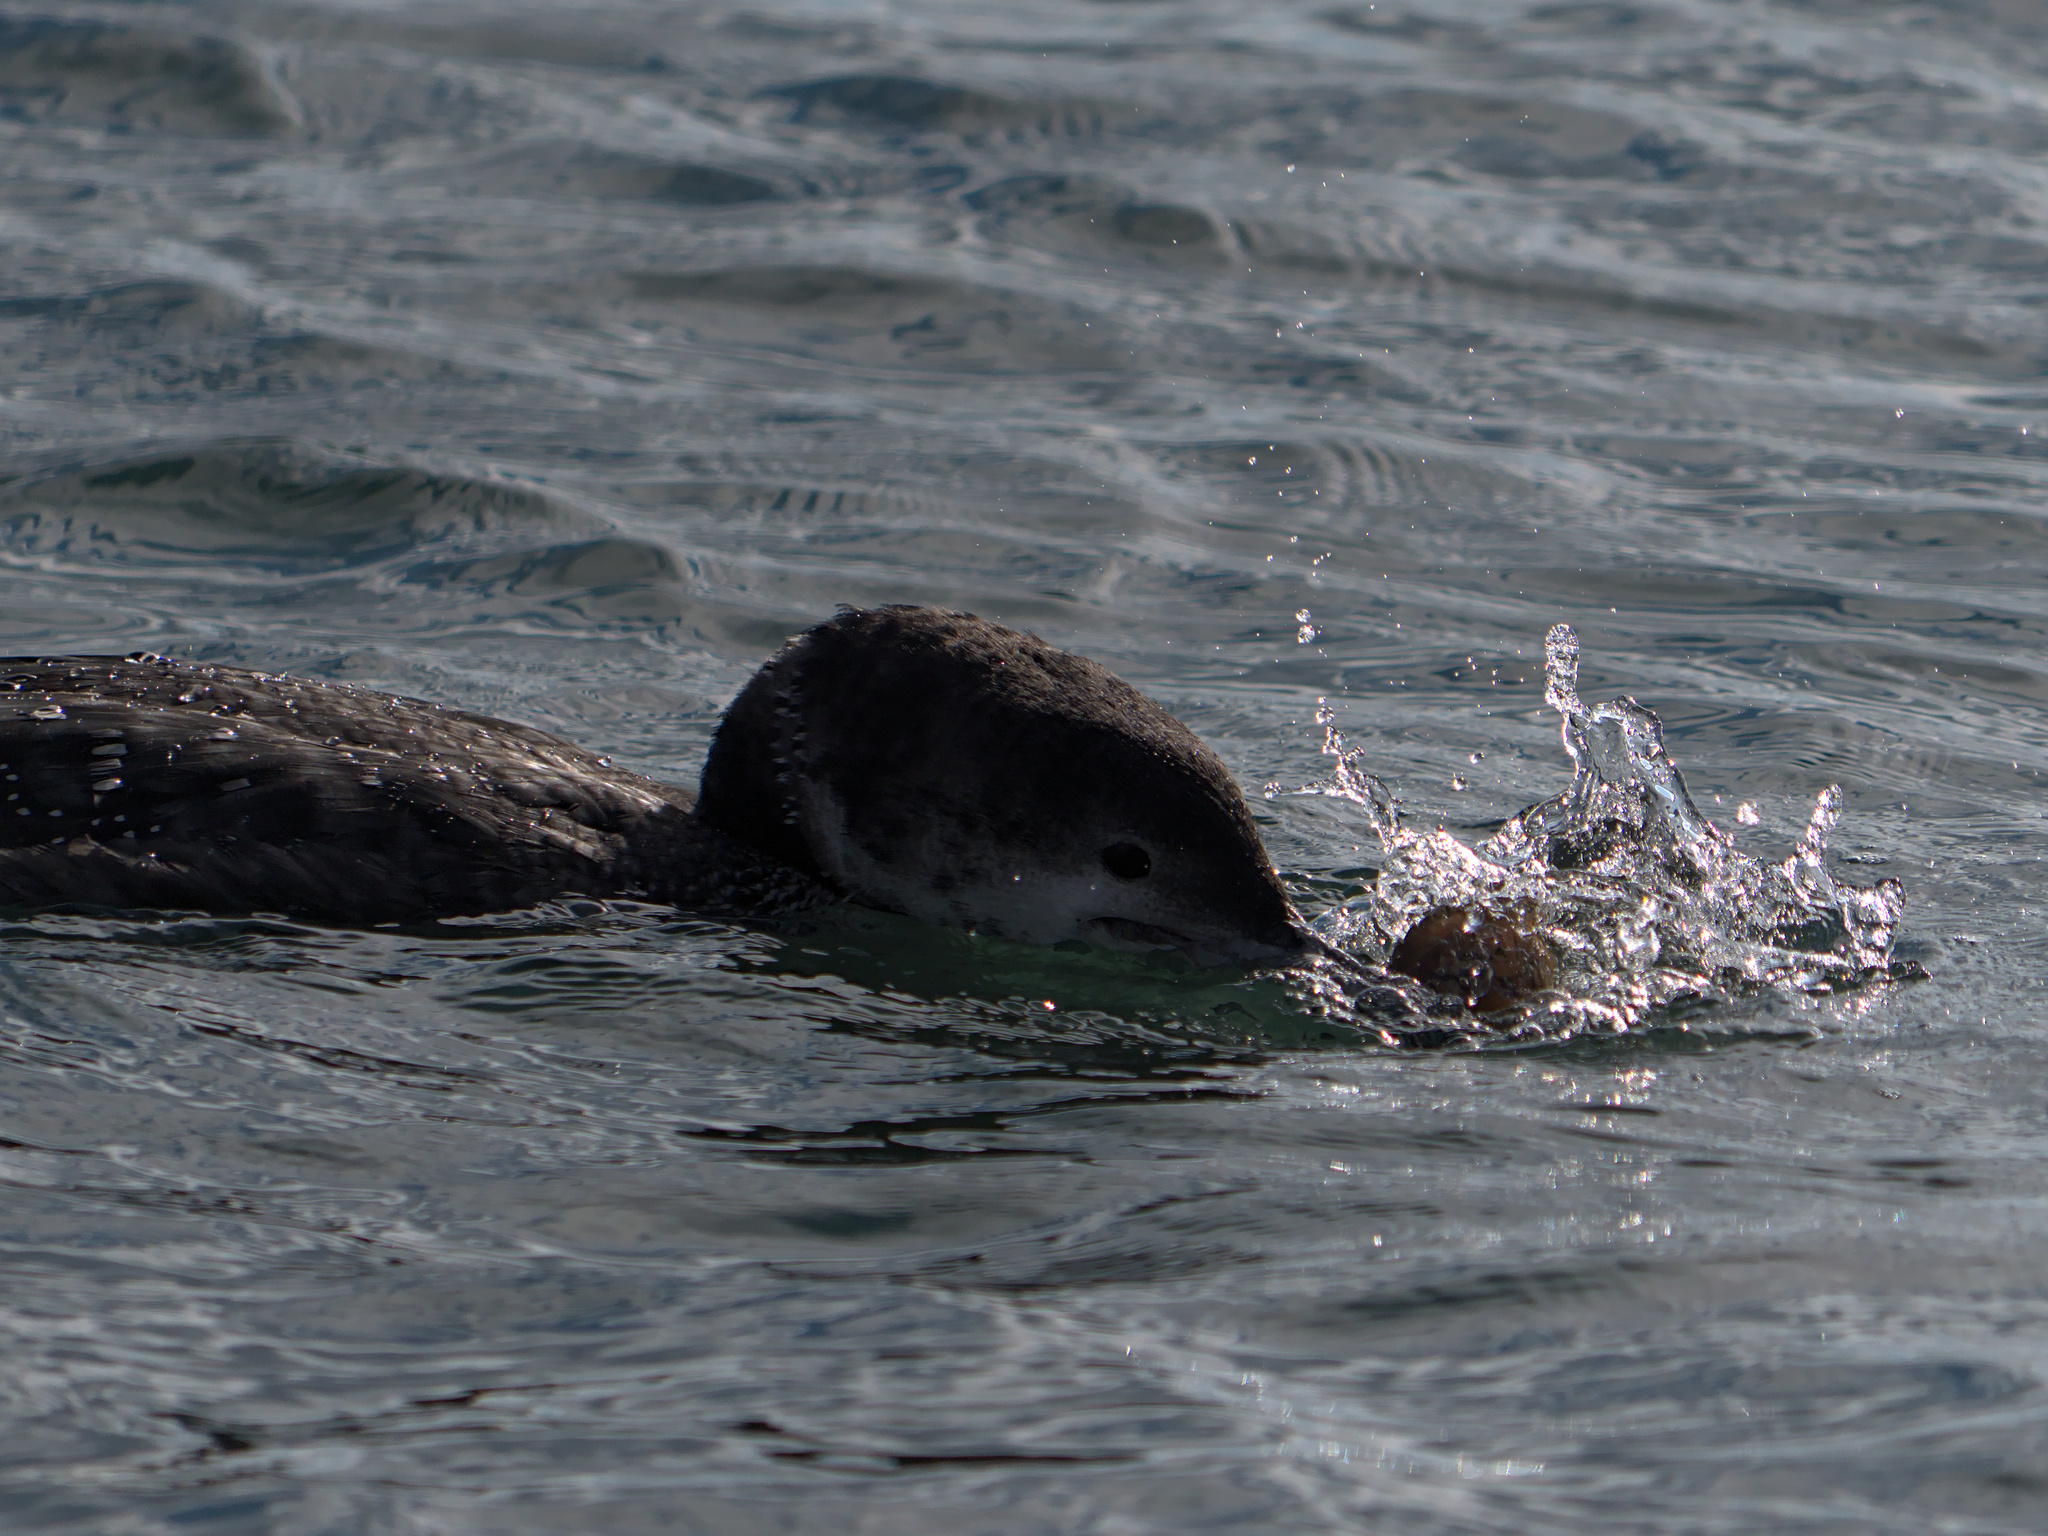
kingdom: Animalia
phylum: Chordata
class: Aves
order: Gaviiformes
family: Gaviidae
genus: Gavia
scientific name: Gavia immer
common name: Common loon
